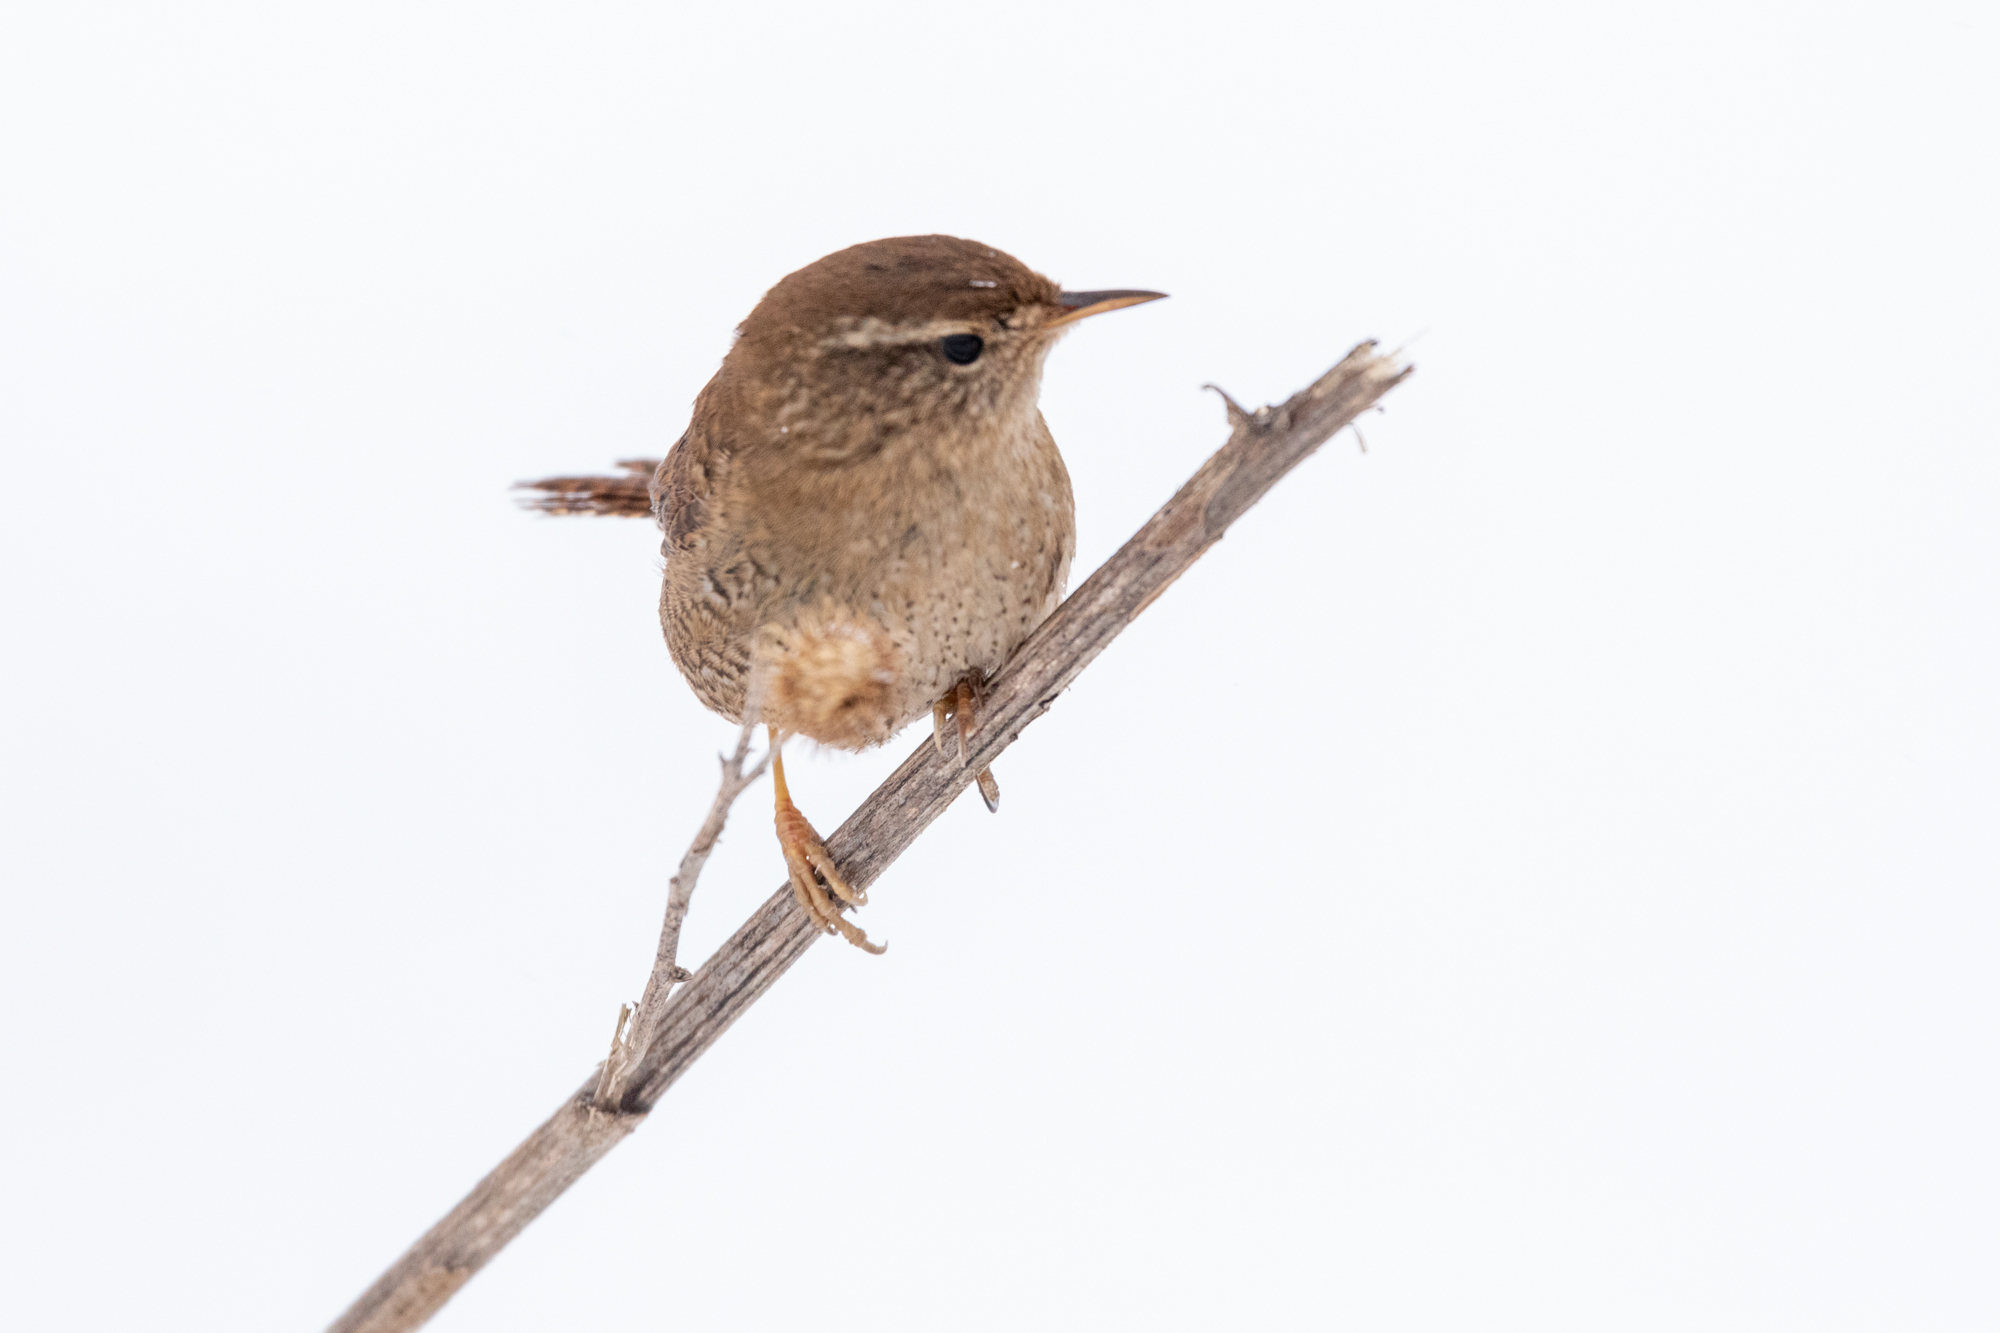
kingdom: Animalia
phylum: Chordata
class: Aves
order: Passeriformes
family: Troglodytidae
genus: Troglodytes
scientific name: Troglodytes troglodytes
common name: Eurasian wren
